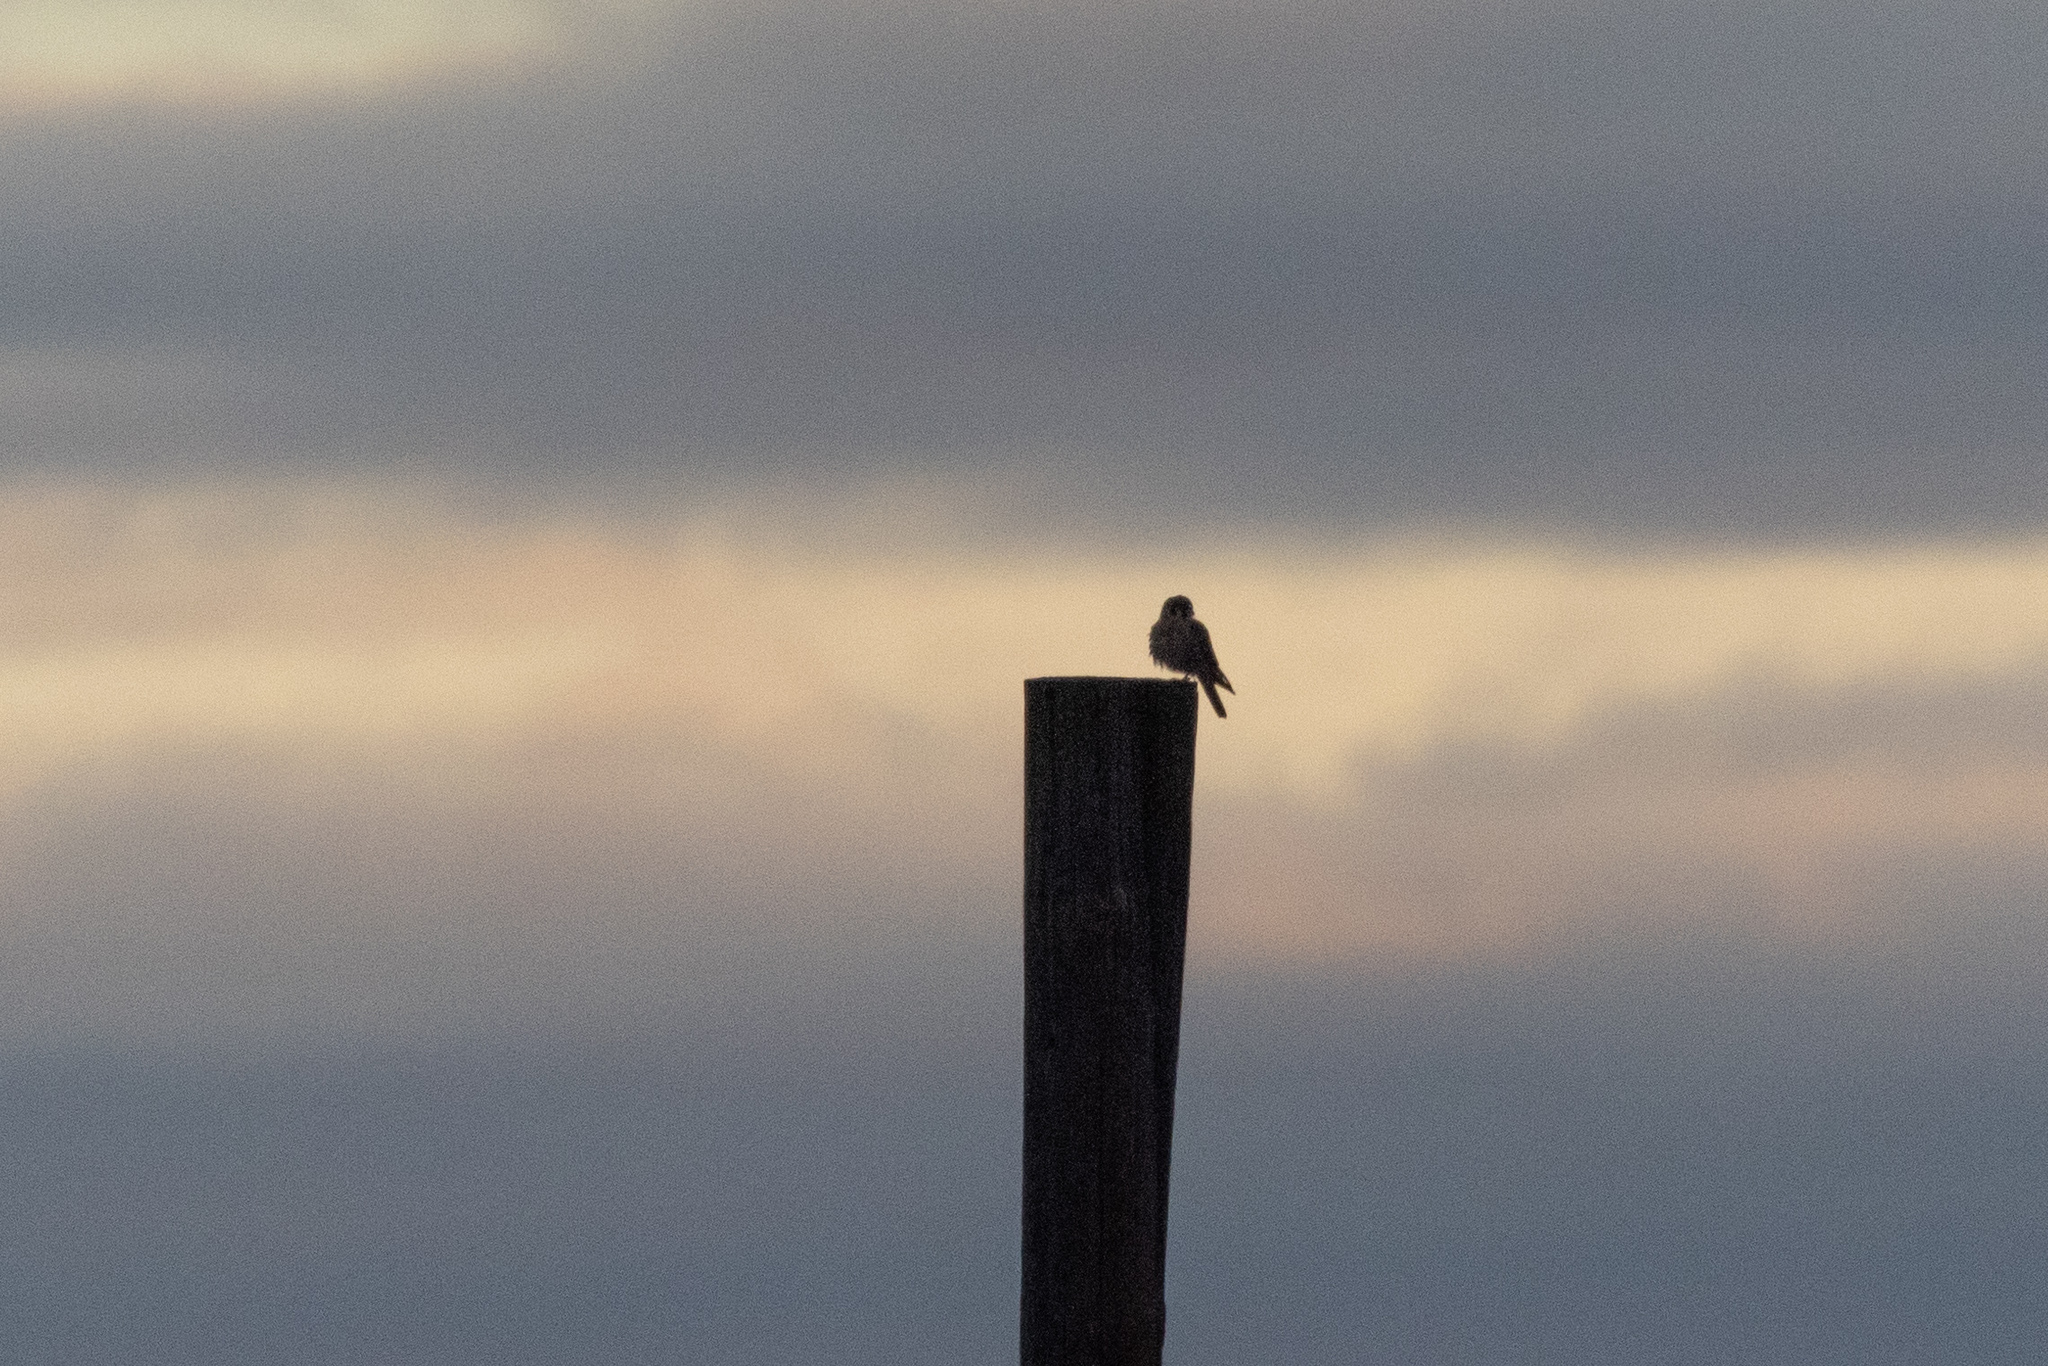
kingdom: Animalia
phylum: Chordata
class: Aves
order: Falconiformes
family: Falconidae
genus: Falco
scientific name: Falco sparverius
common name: American kestrel
